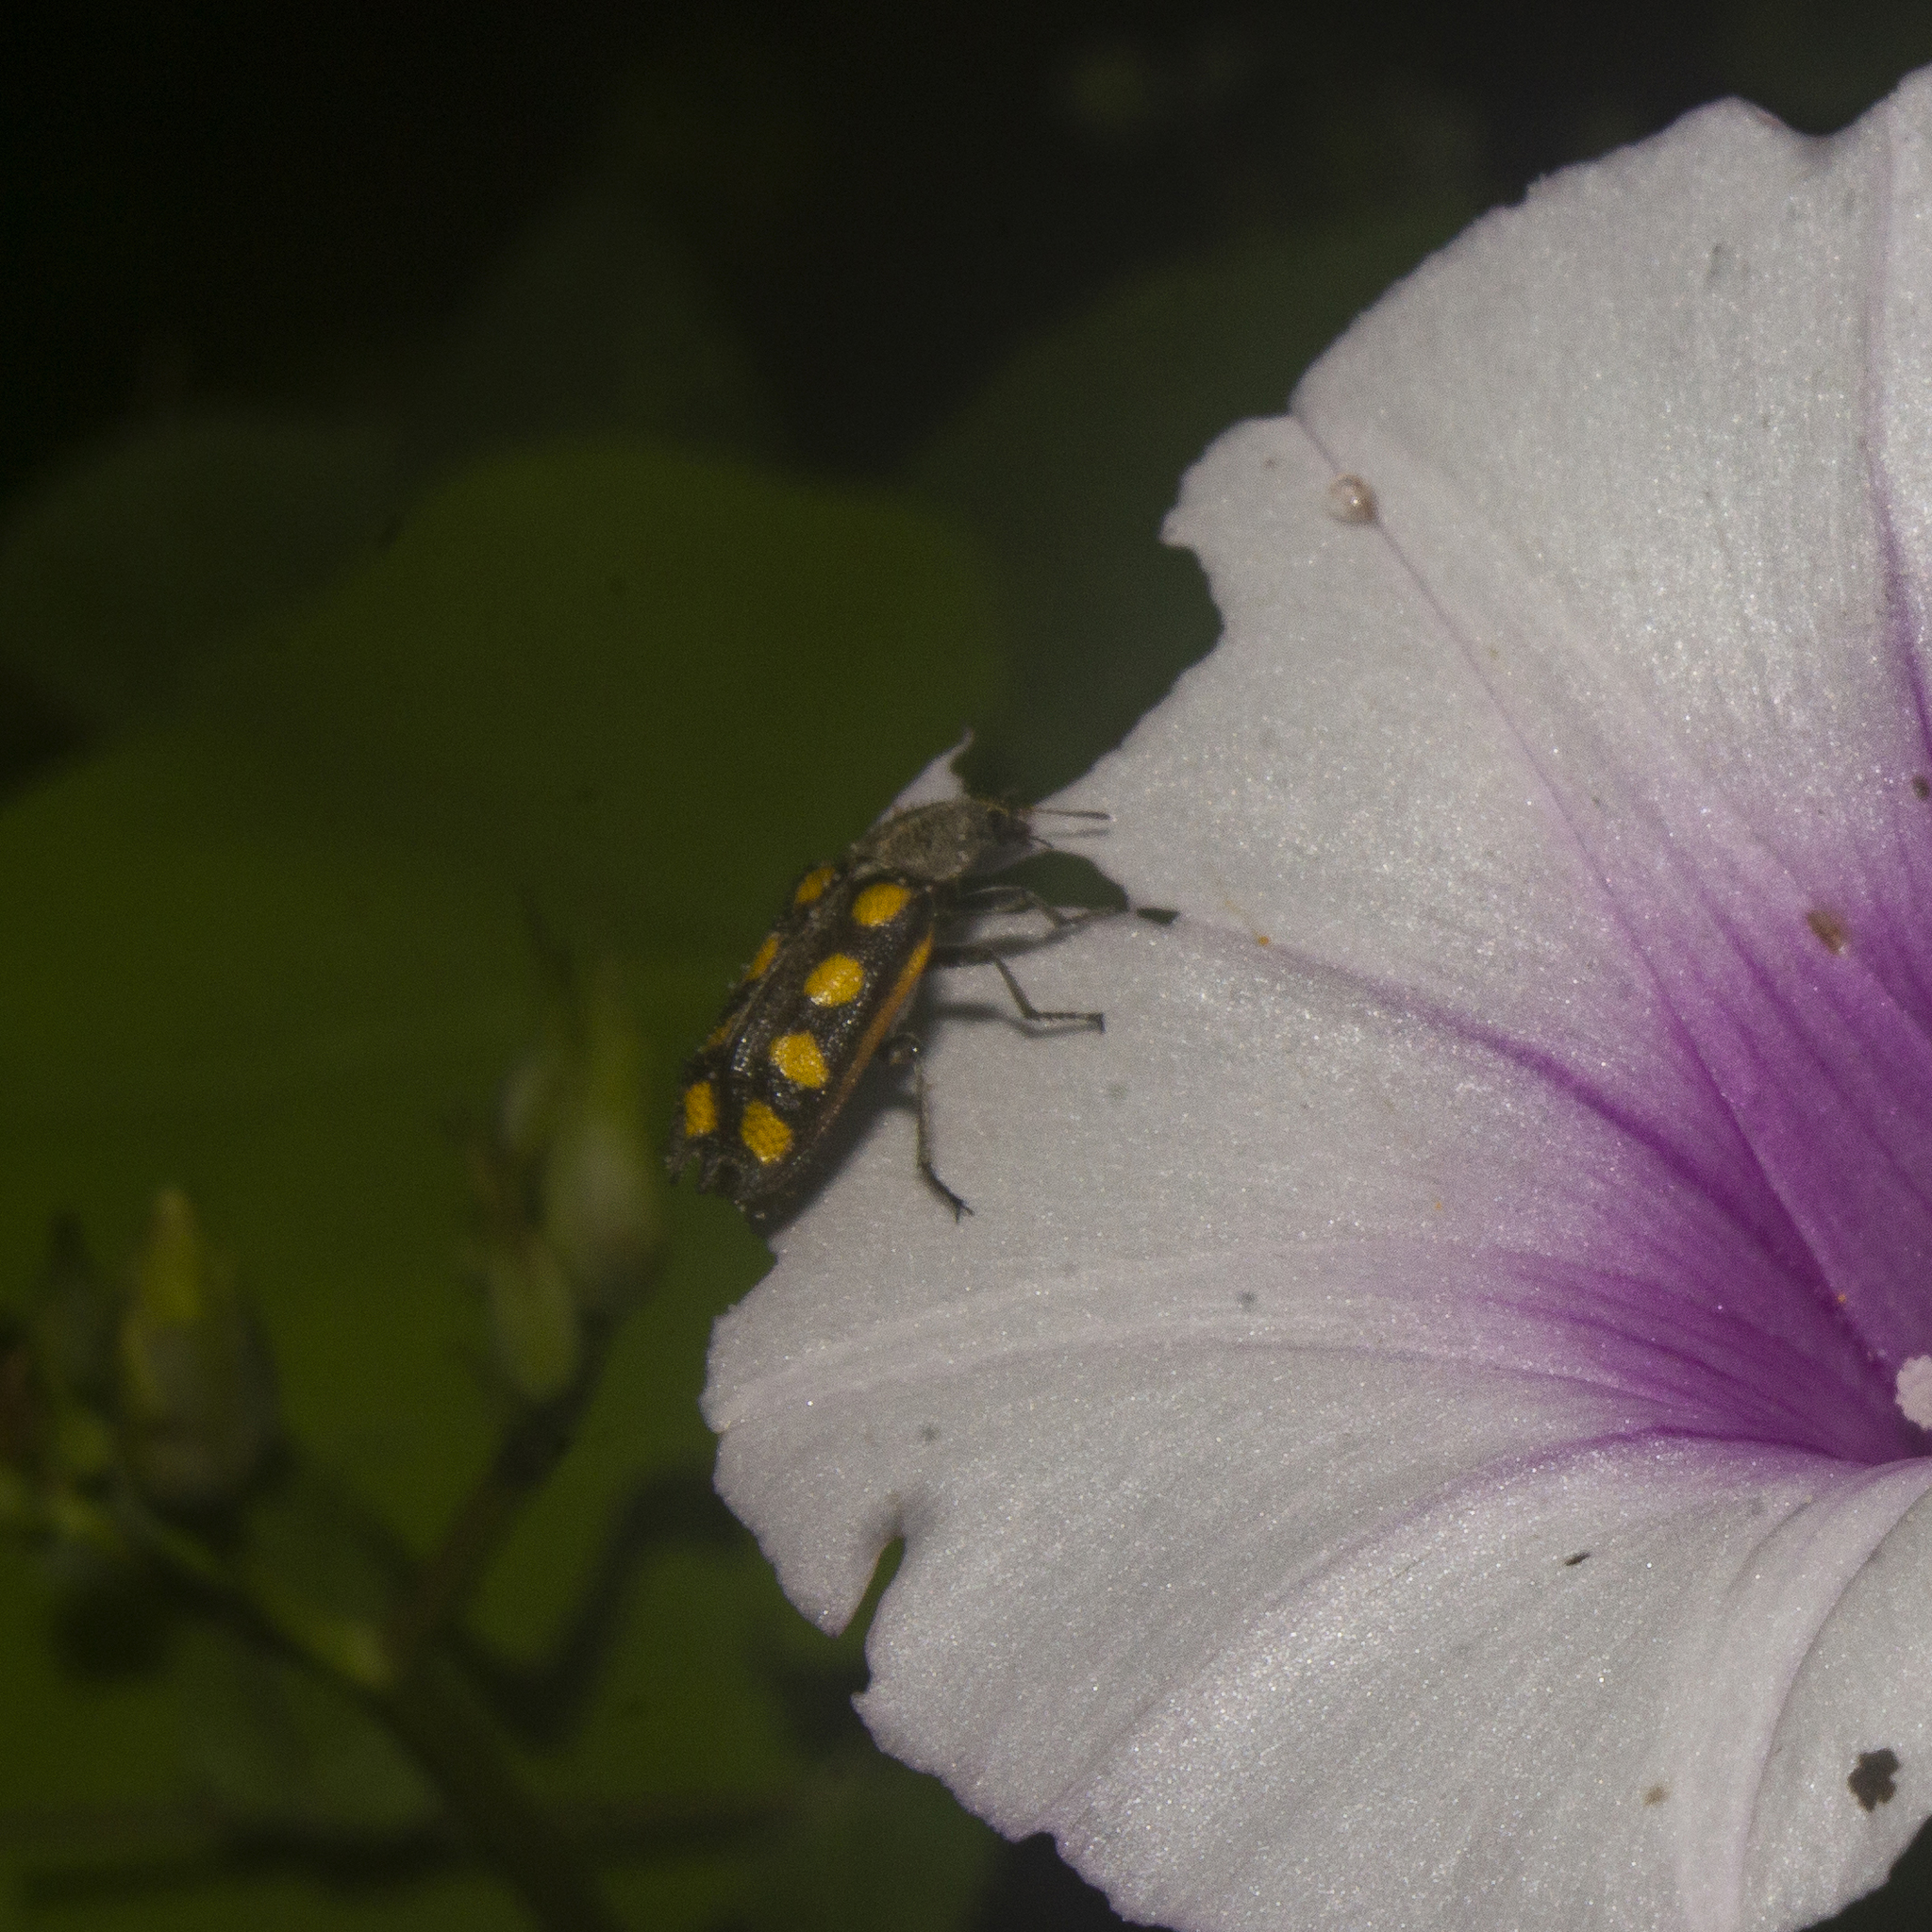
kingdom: Animalia
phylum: Arthropoda
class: Insecta
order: Coleoptera
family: Melyridae
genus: Astylus
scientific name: Astylus
